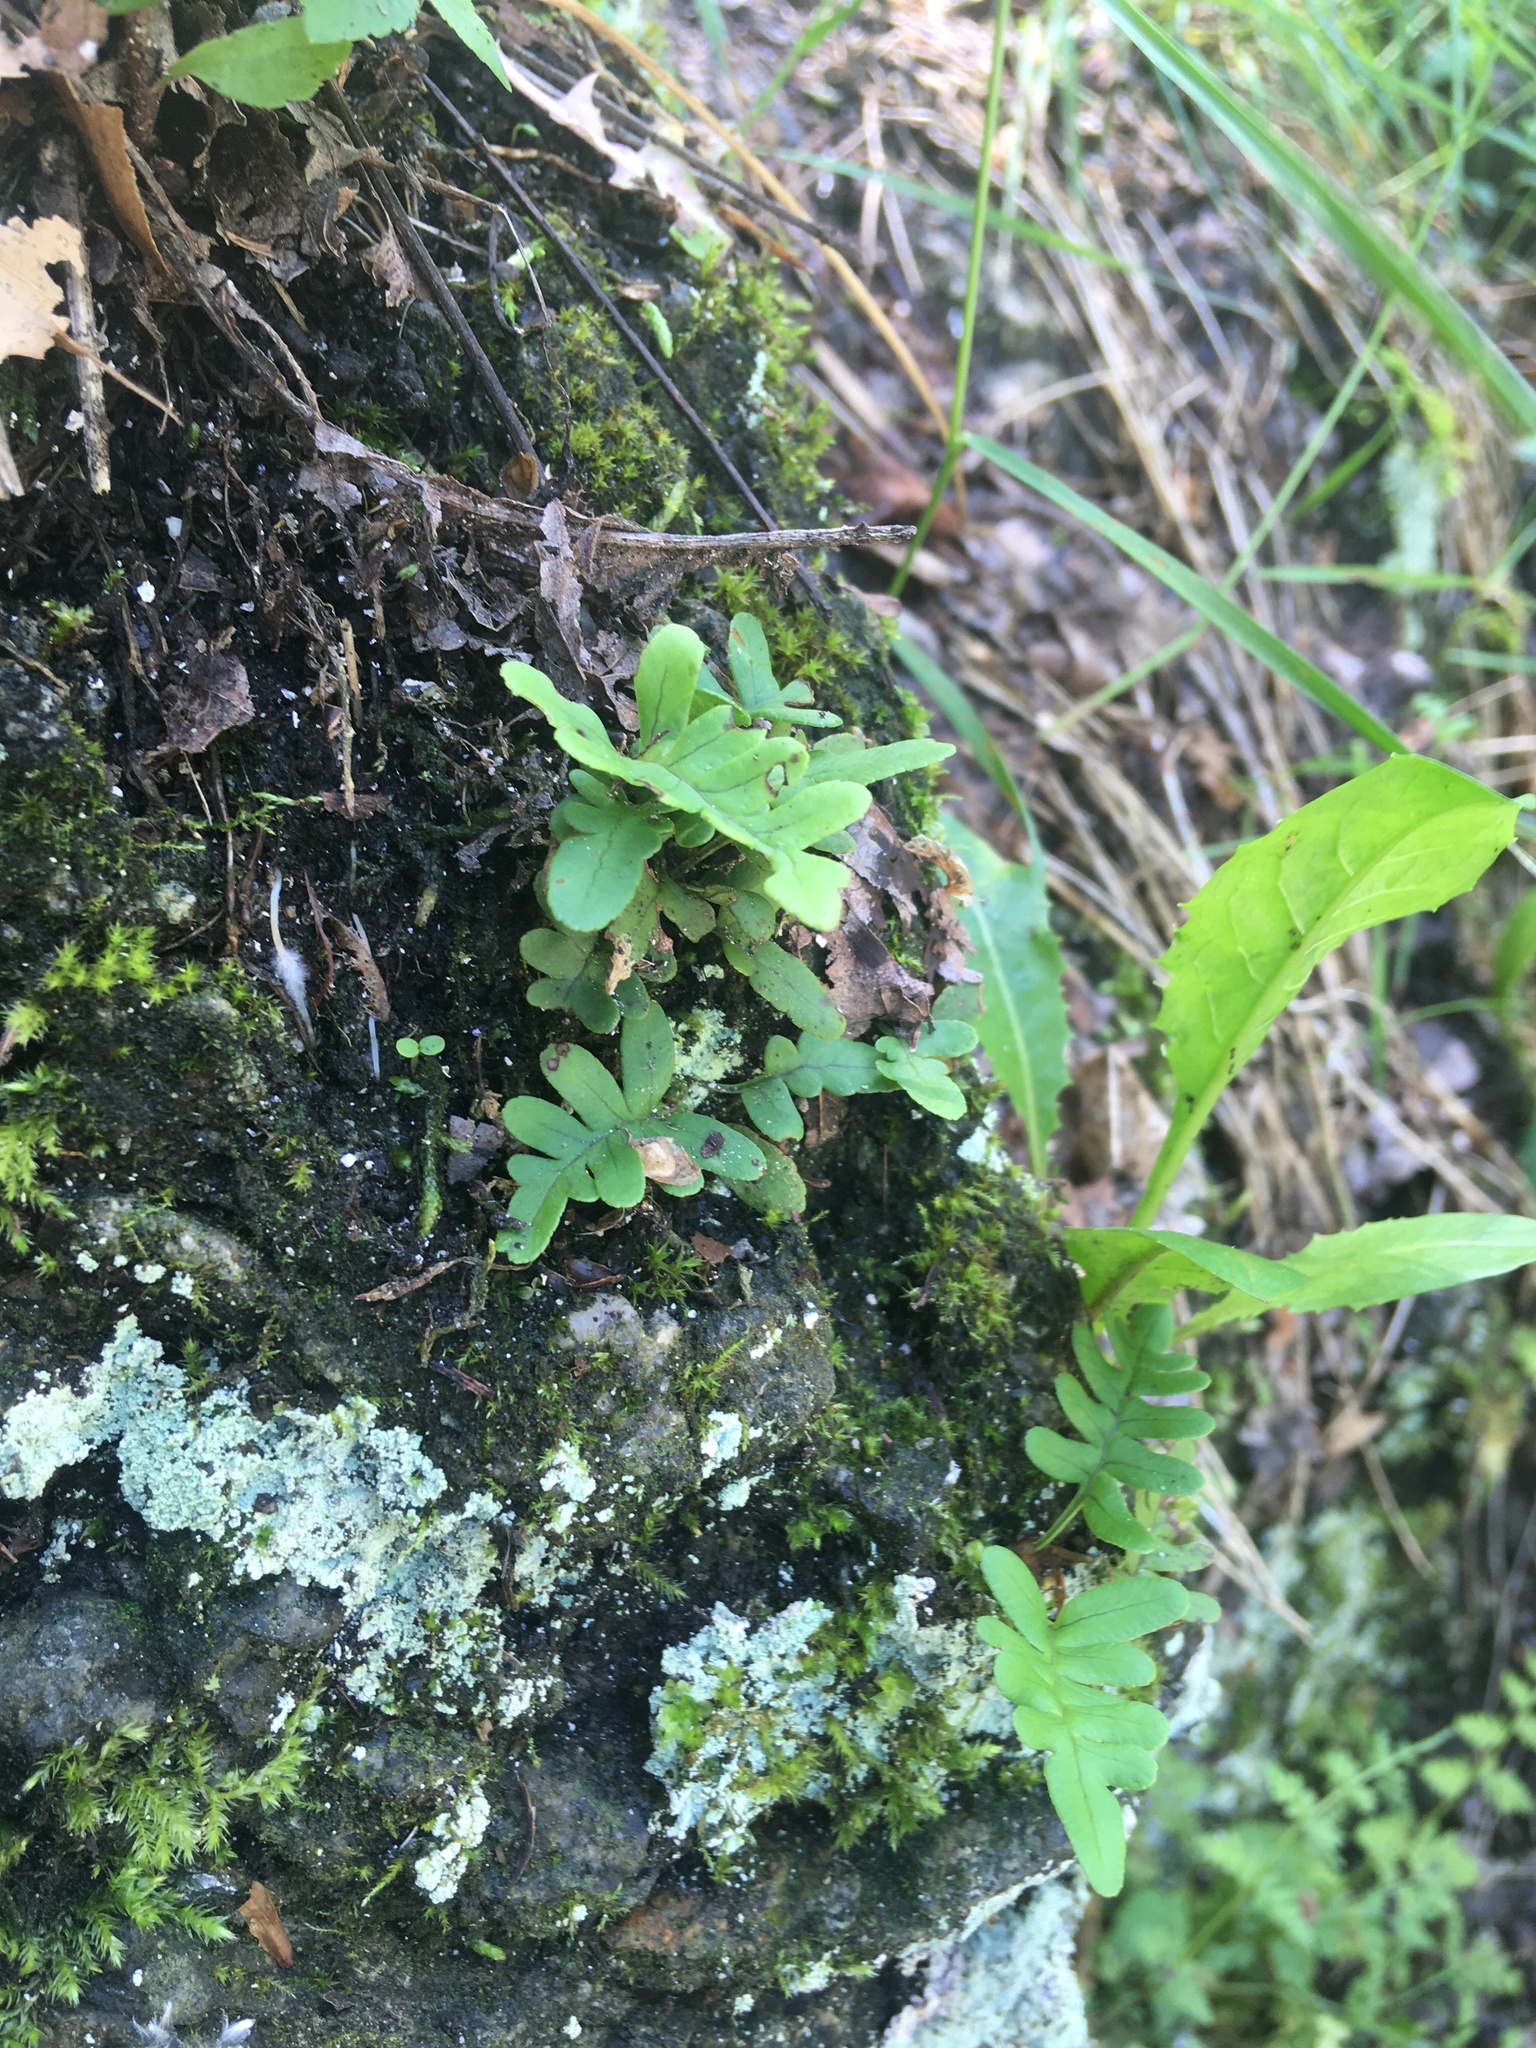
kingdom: Plantae
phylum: Tracheophyta
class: Polypodiopsida
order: Polypodiales
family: Polypodiaceae
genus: Polypodium
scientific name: Polypodium virginianum
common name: American wall fern
